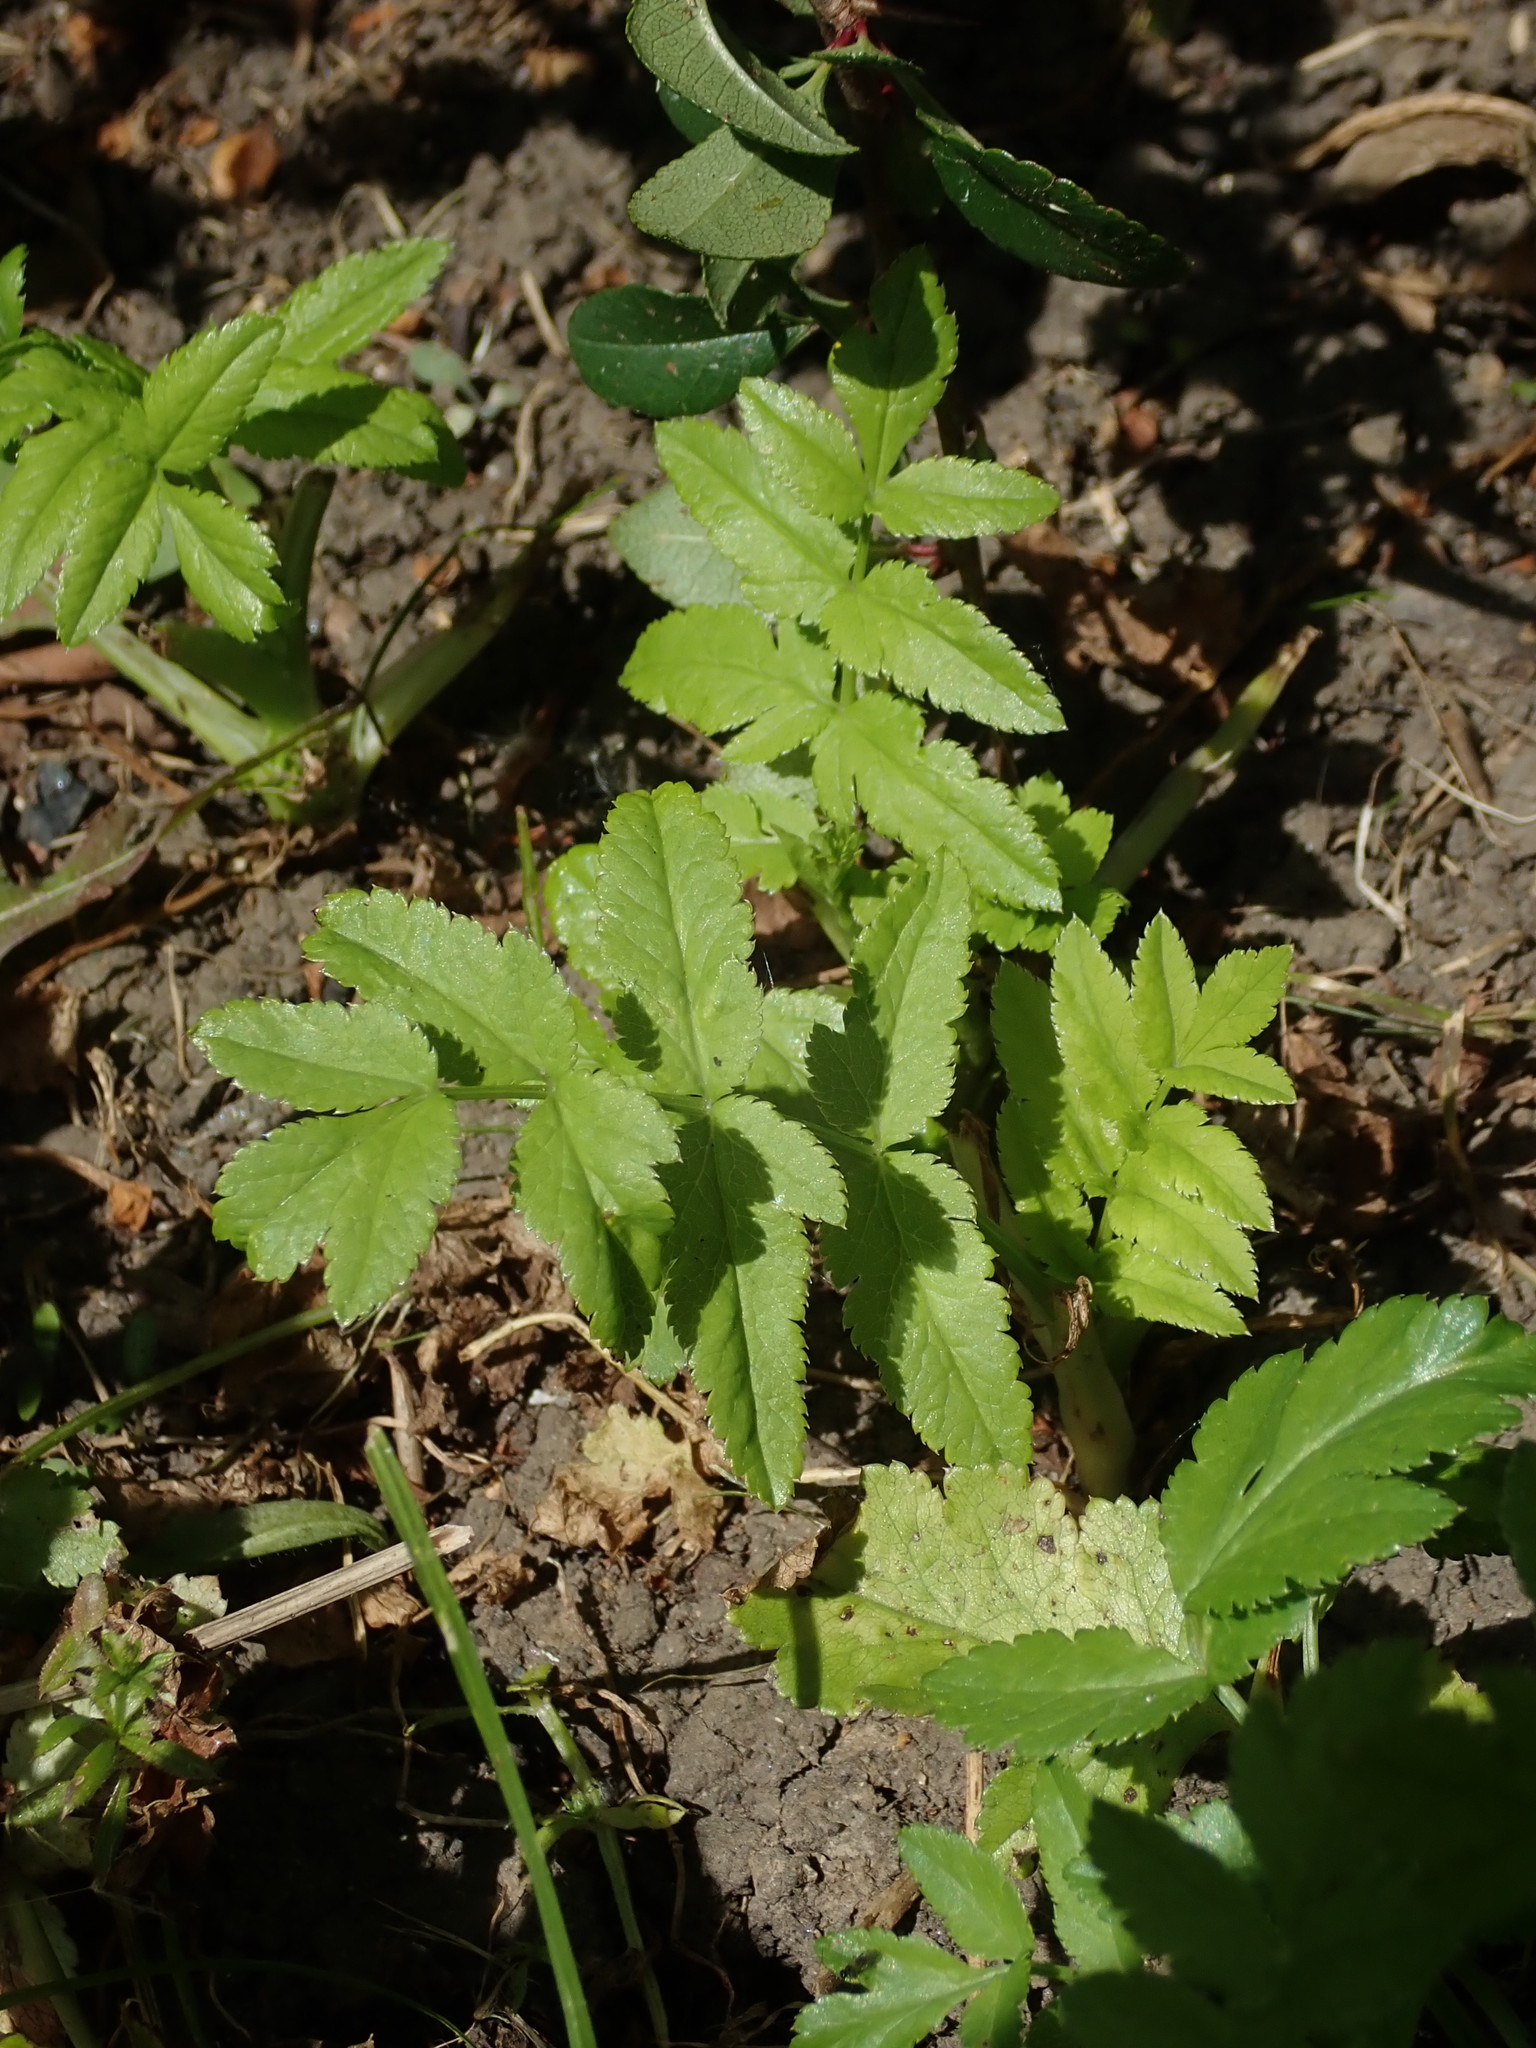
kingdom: Plantae
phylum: Tracheophyta
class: Magnoliopsida
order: Apiales
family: Apiaceae
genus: Pastinaca
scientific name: Pastinaca sativa
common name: Wild parsnip
